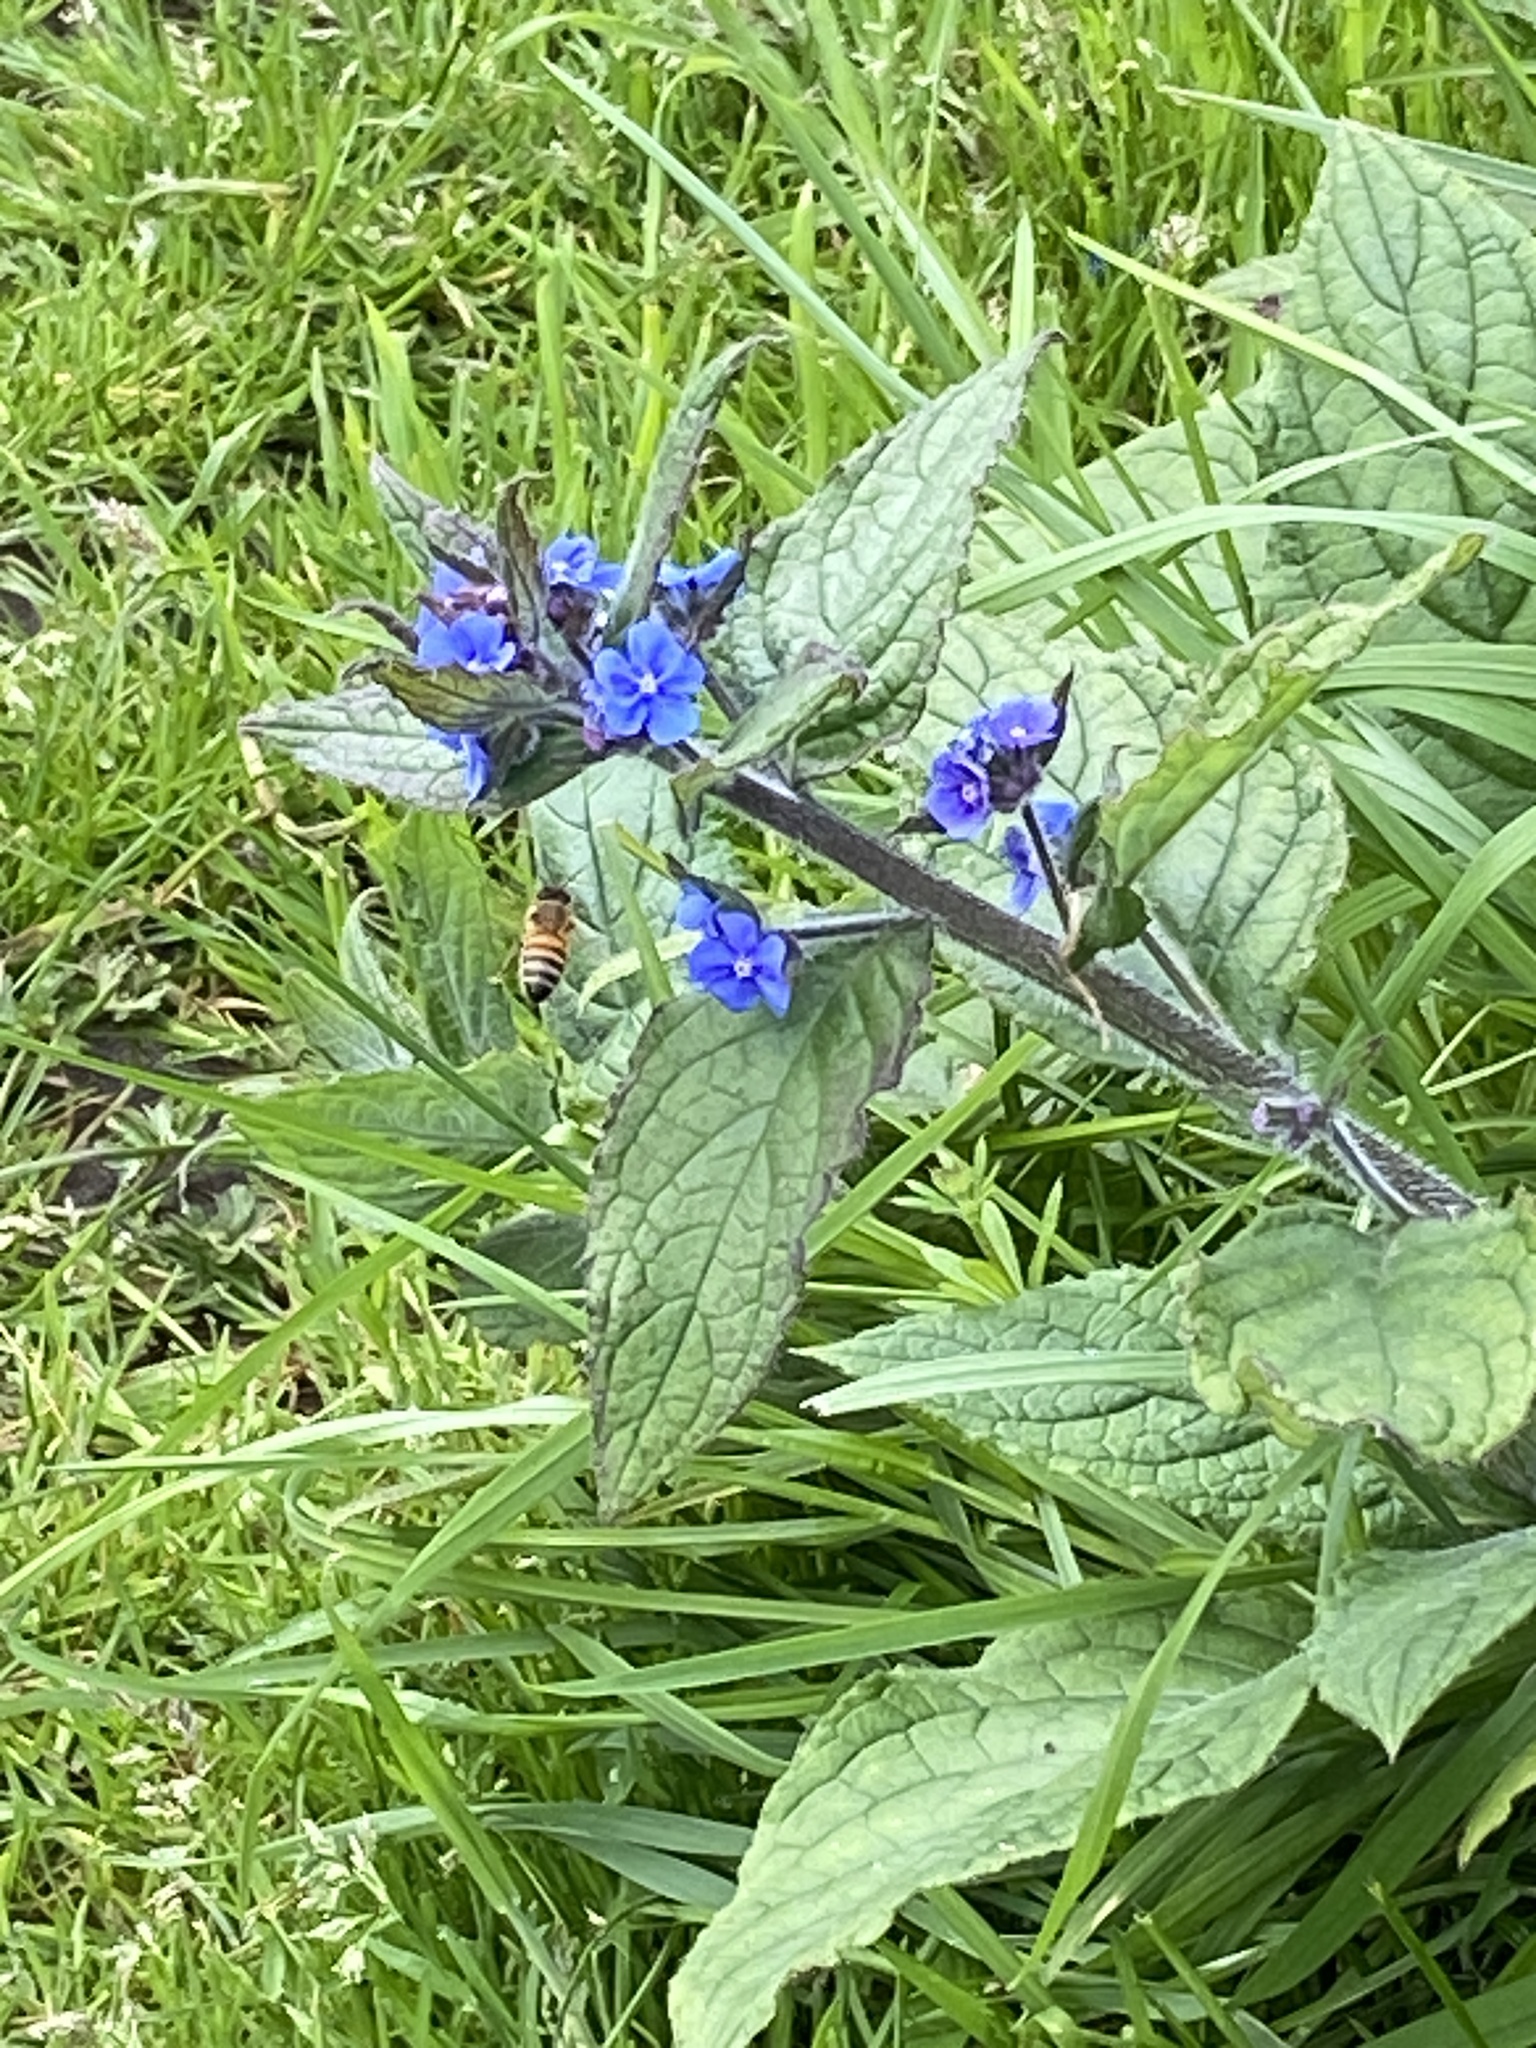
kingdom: Animalia
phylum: Arthropoda
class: Insecta
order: Hymenoptera
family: Apidae
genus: Apis
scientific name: Apis mellifera
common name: Honey bee
